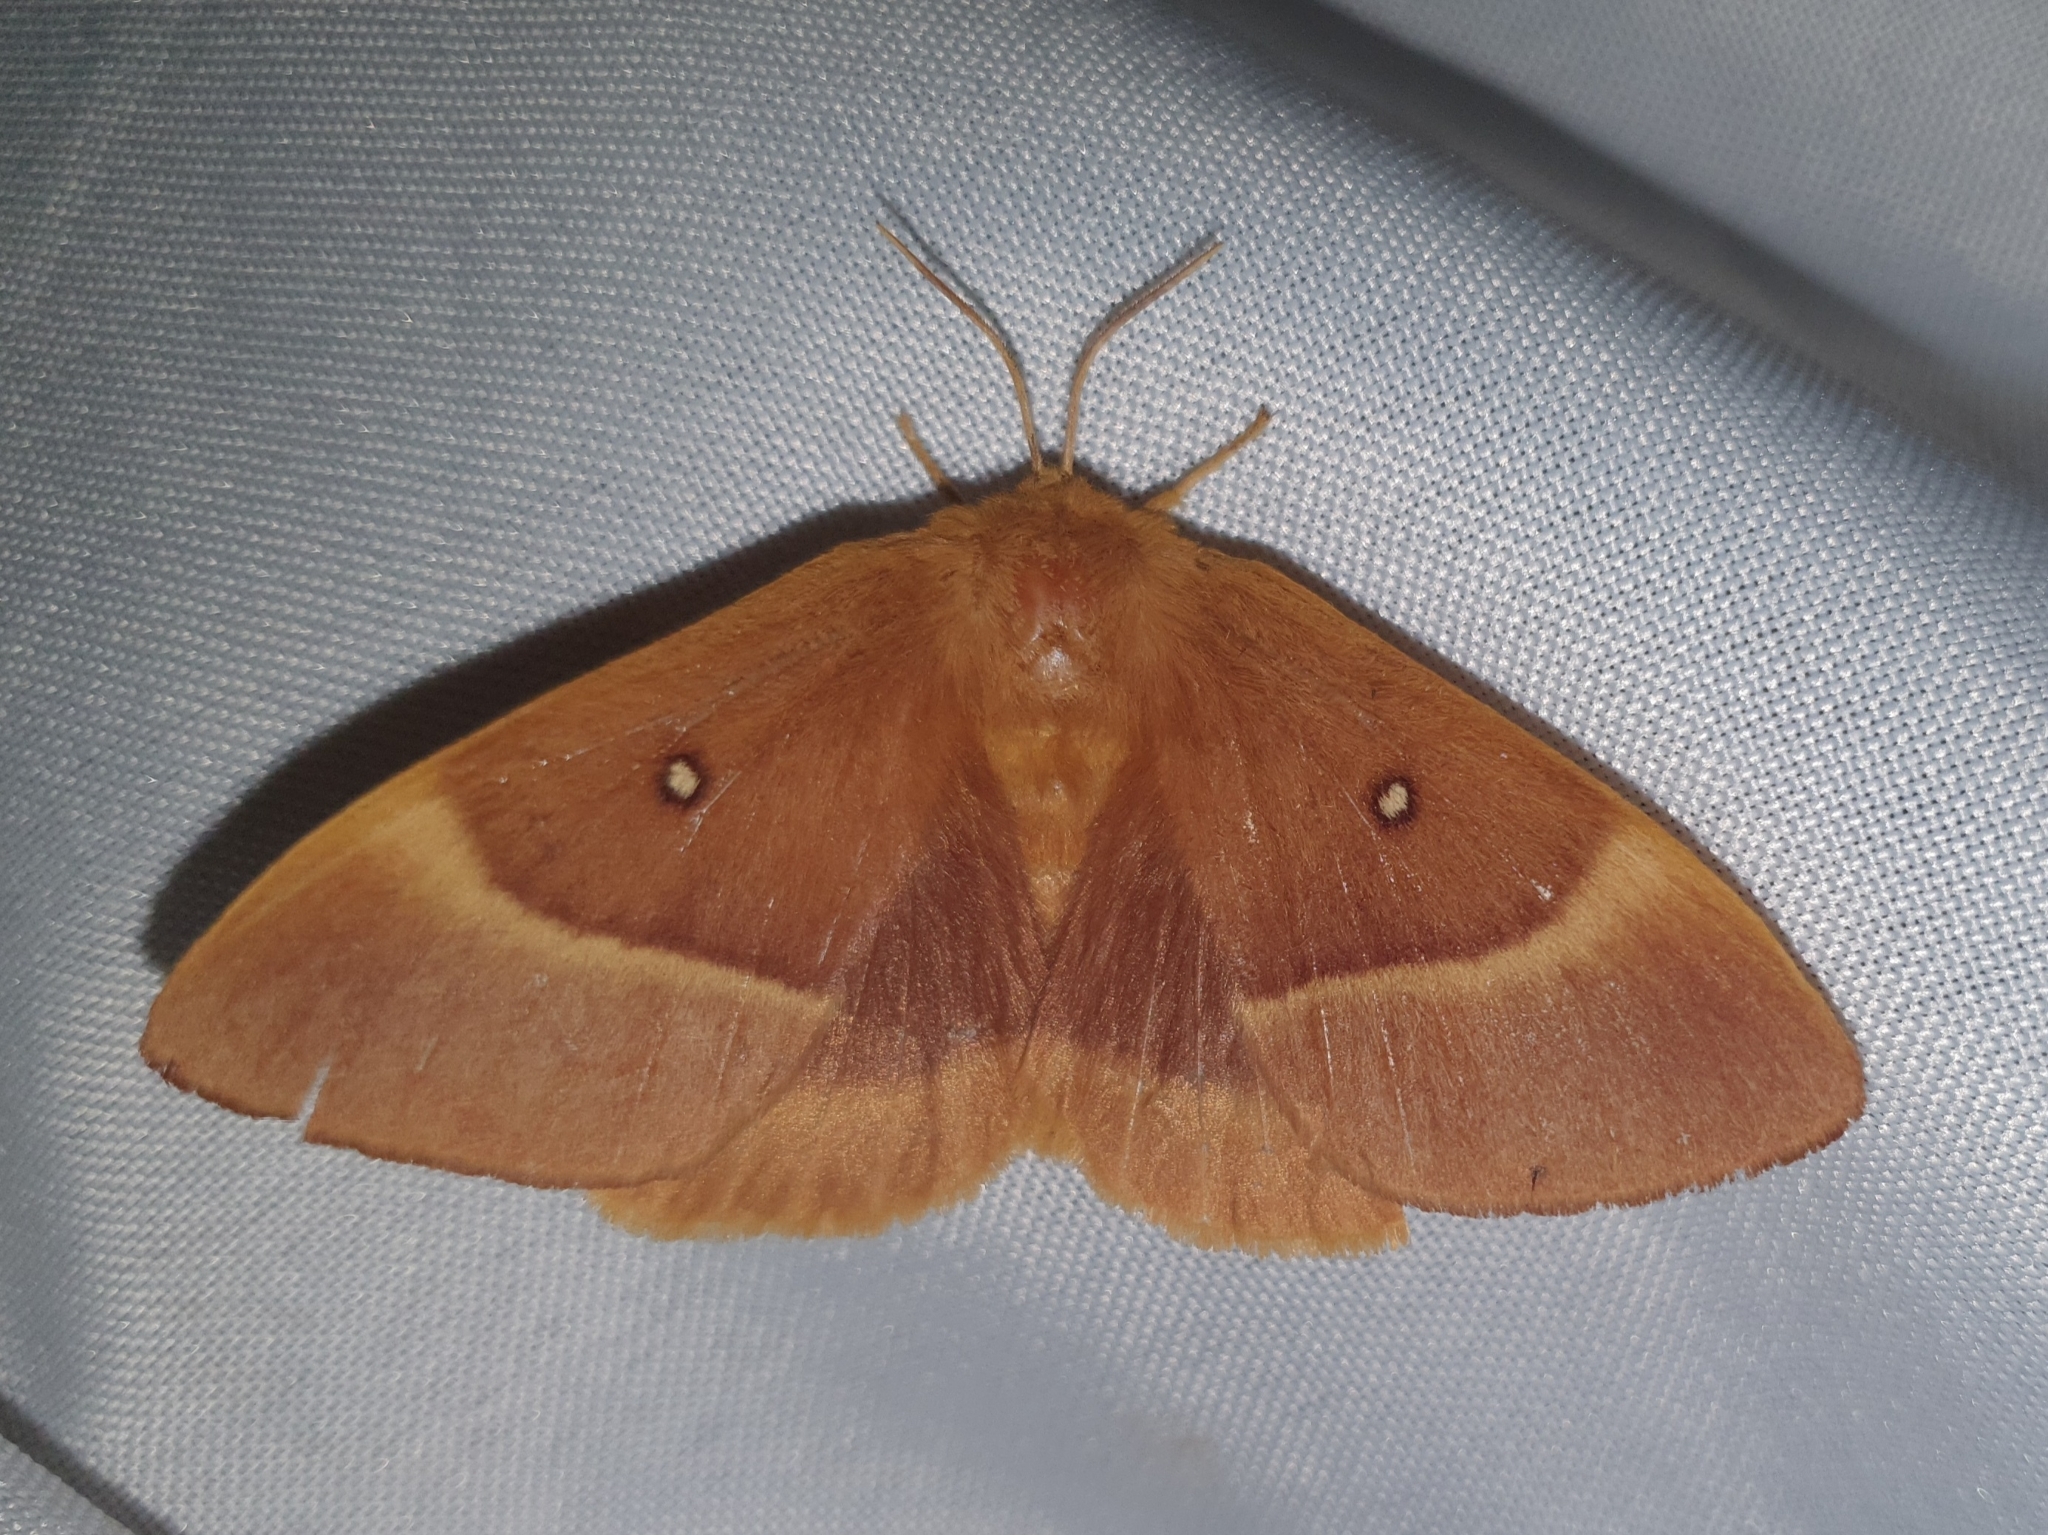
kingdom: Animalia
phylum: Arthropoda
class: Insecta
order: Lepidoptera
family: Lasiocampidae
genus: Lasiocampa
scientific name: Lasiocampa quercus
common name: Oak eggar
